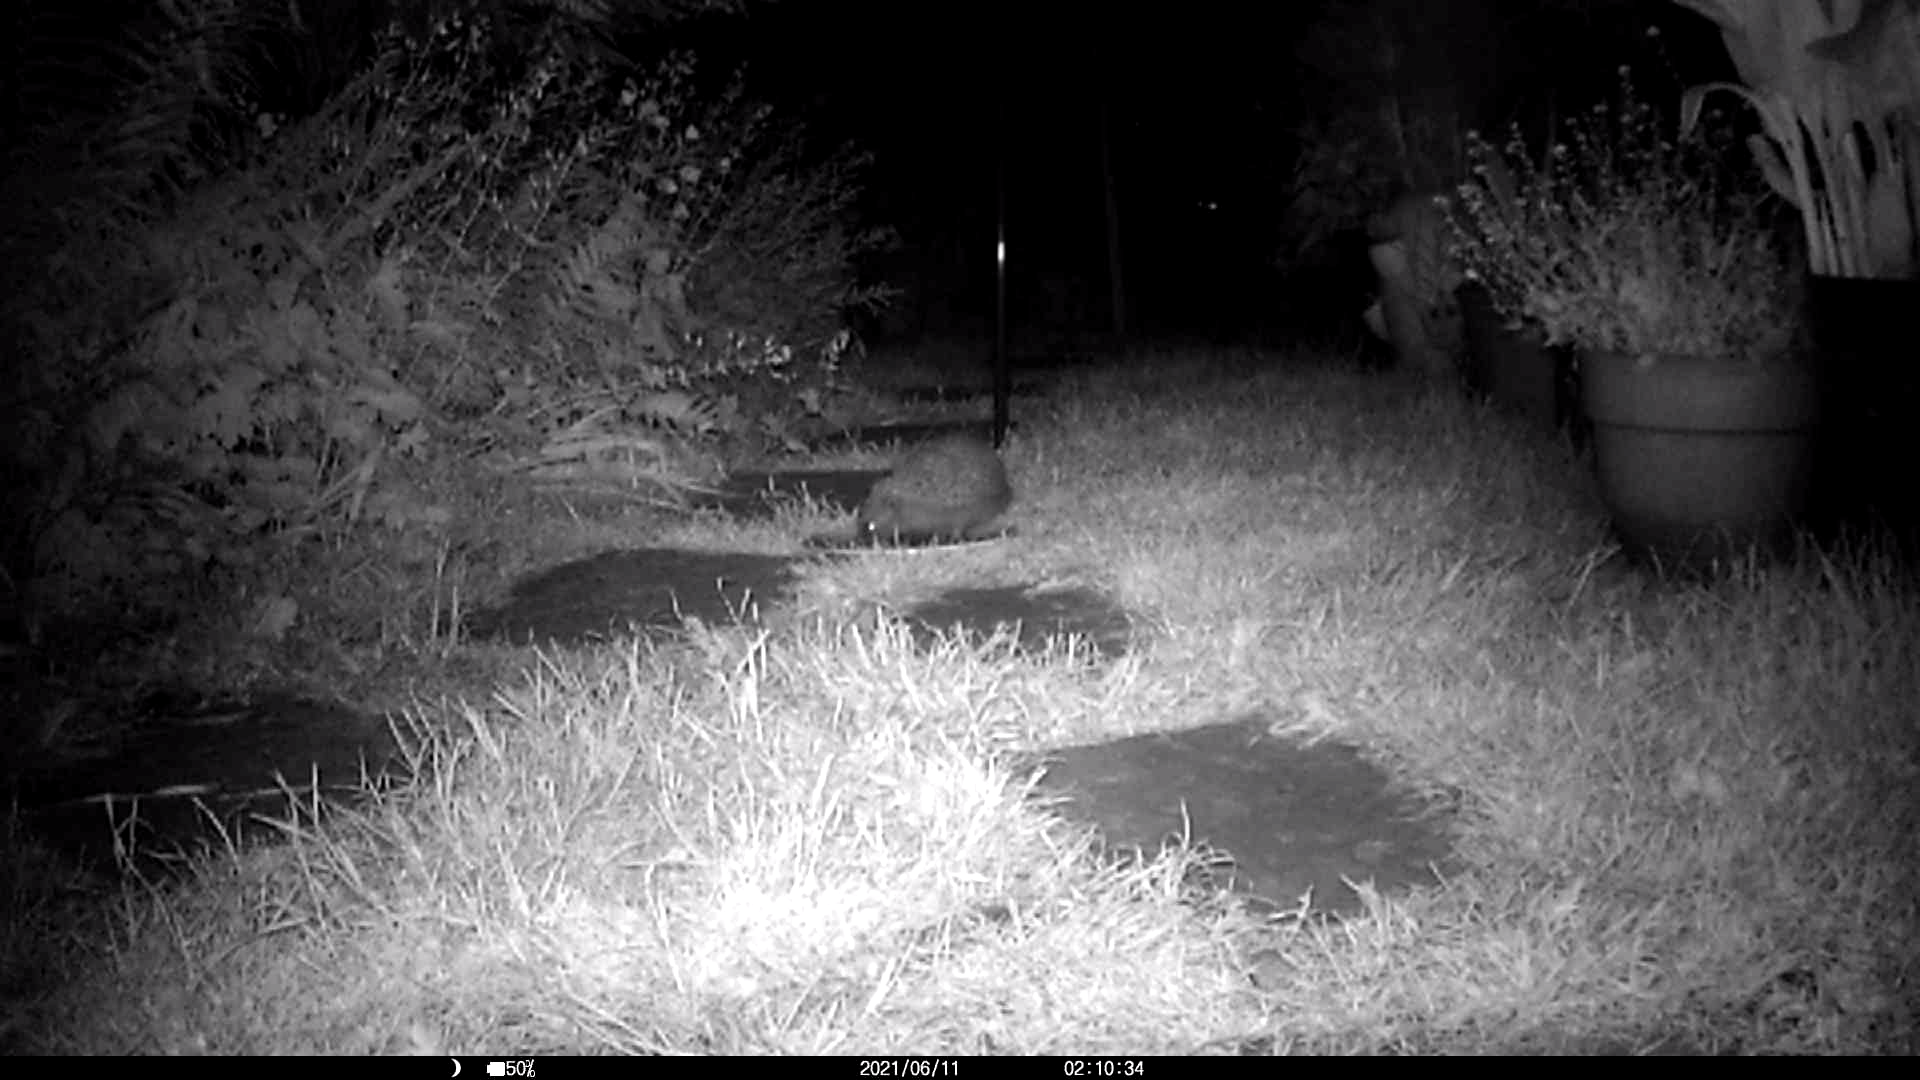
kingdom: Animalia
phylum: Chordata
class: Mammalia
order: Erinaceomorpha
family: Erinaceidae
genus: Erinaceus
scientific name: Erinaceus europaeus
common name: West european hedgehog
